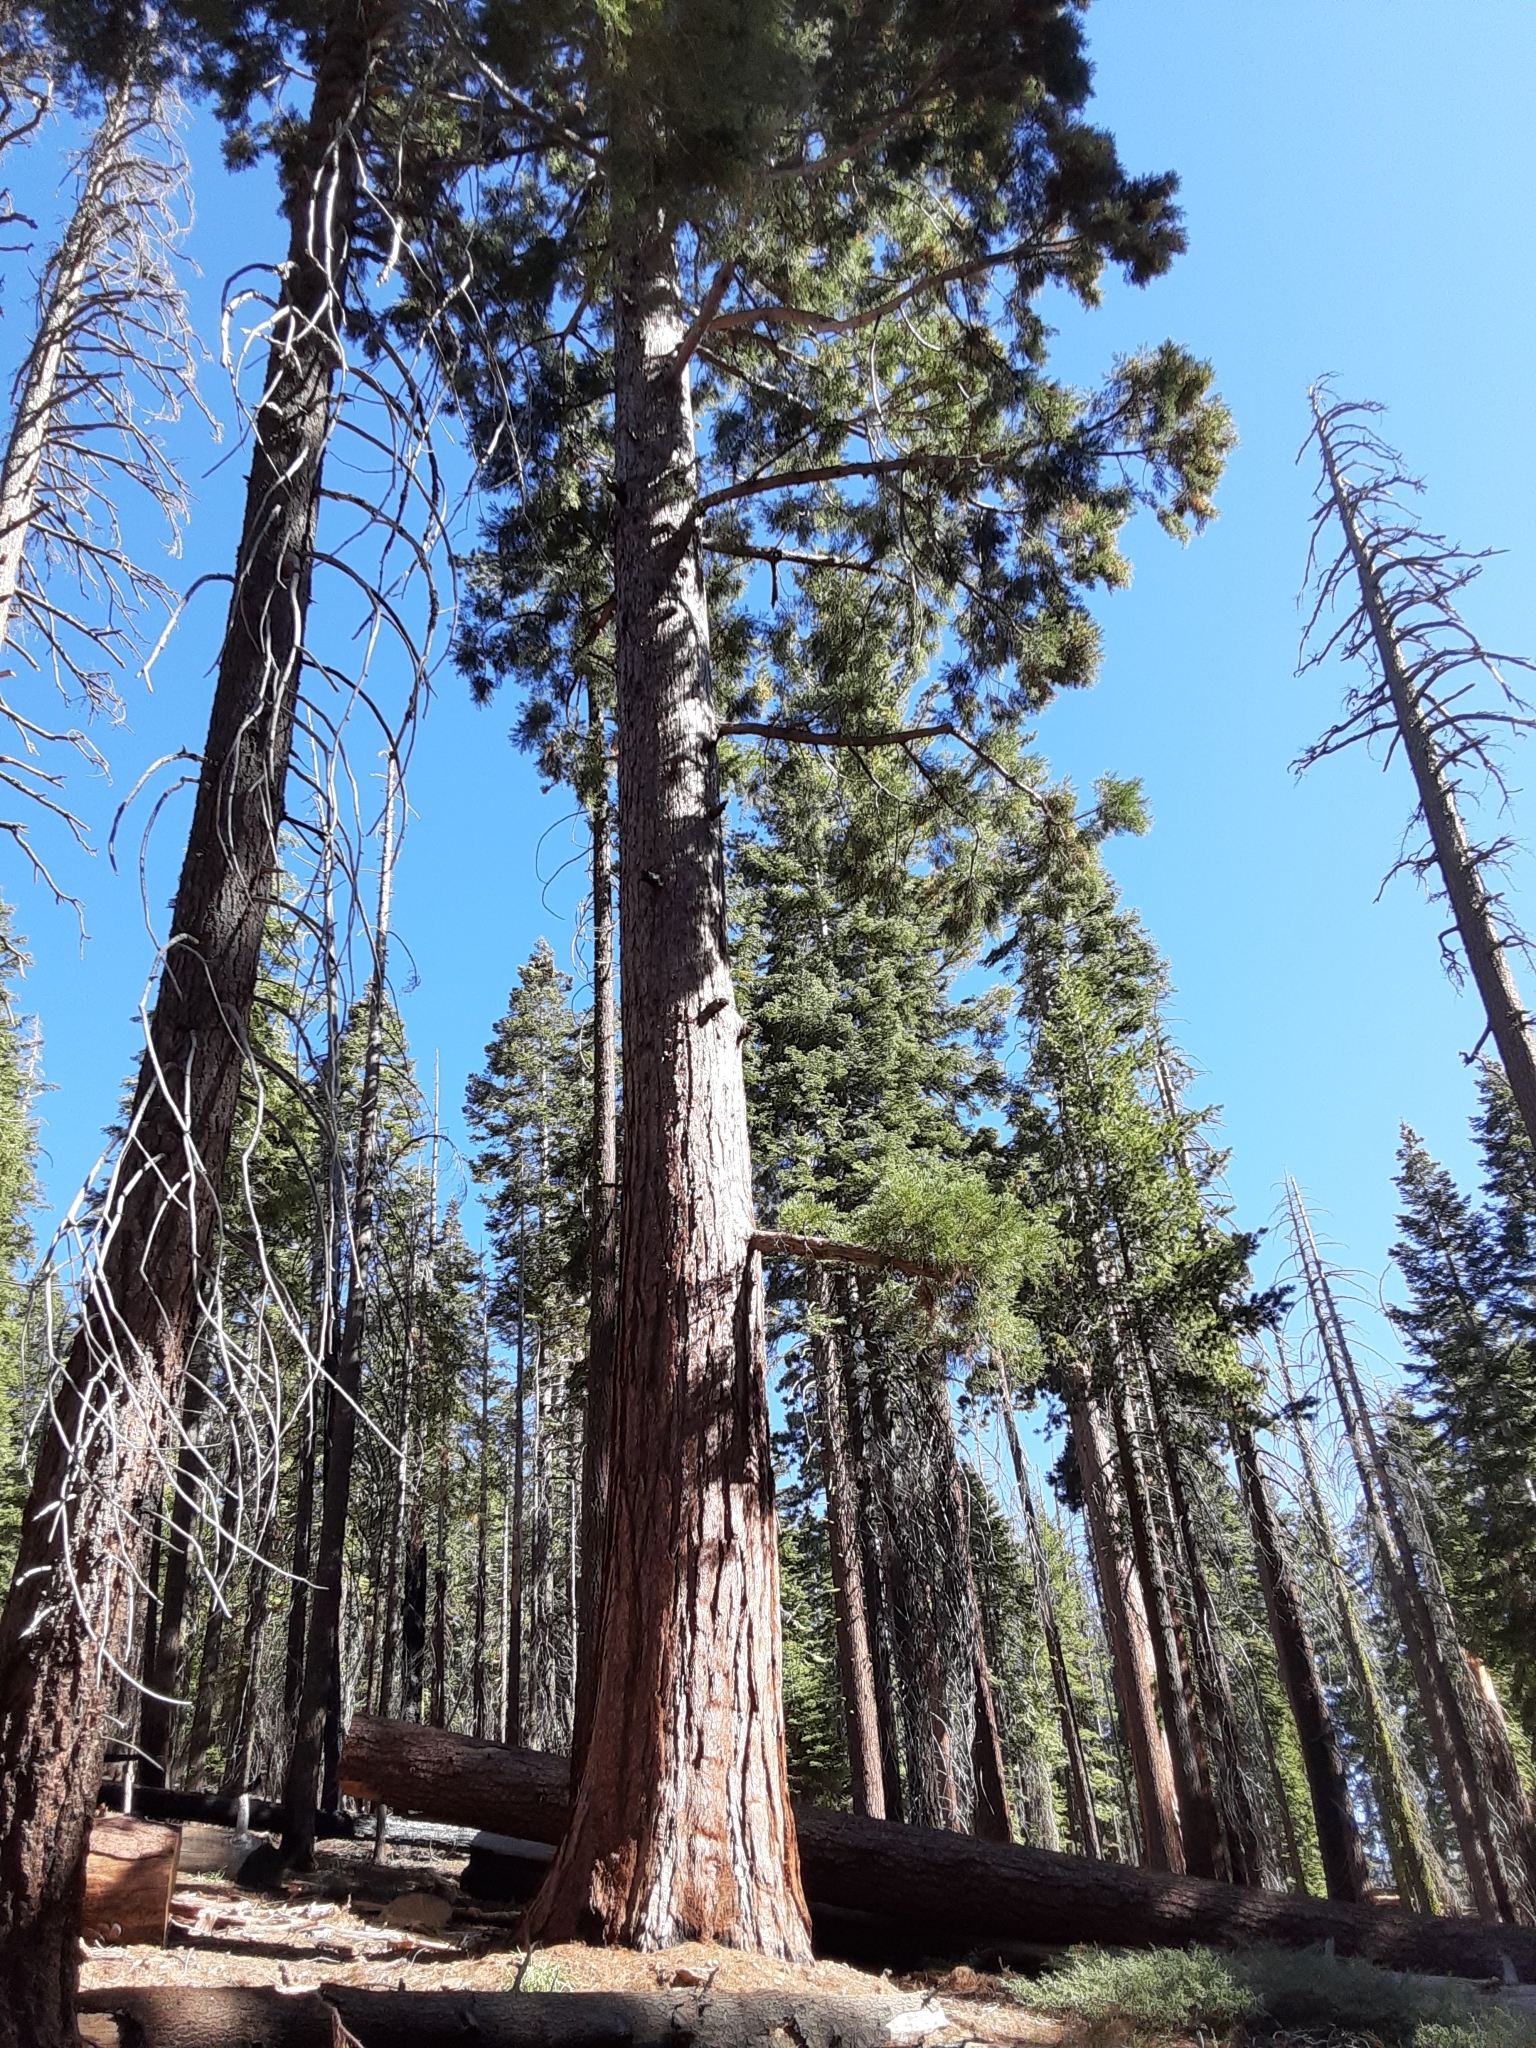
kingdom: Plantae
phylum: Tracheophyta
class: Pinopsida
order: Pinales
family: Cupressaceae
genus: Sequoiadendron
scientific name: Sequoiadendron giganteum
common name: Wellingtonia
